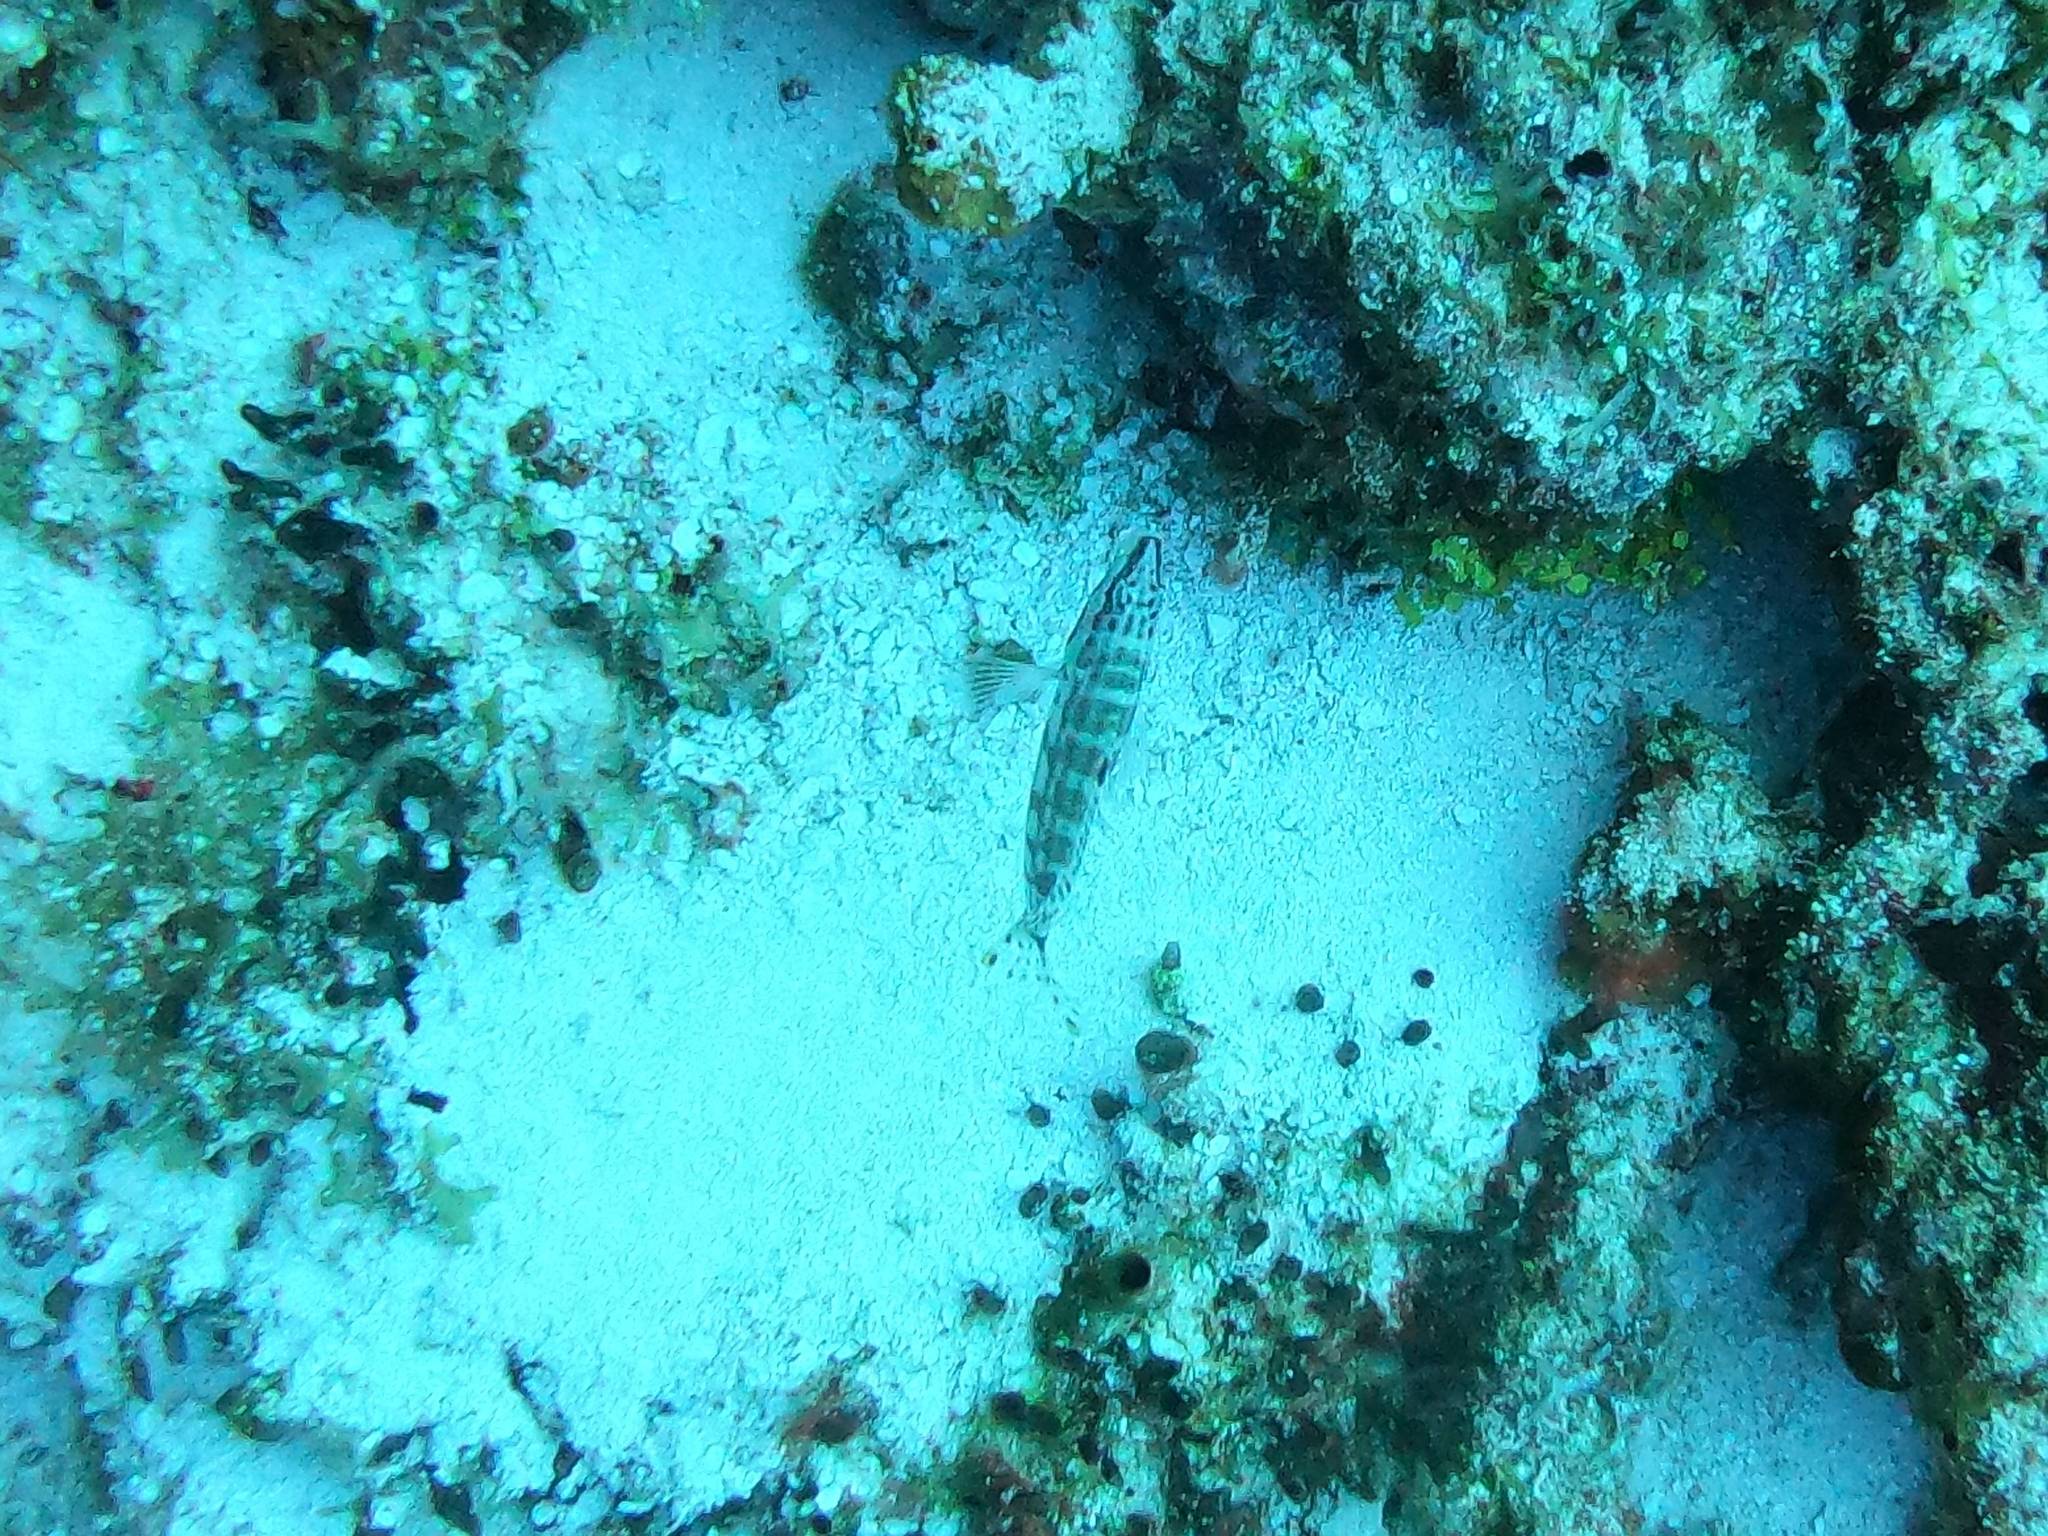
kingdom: Animalia
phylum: Chordata
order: Perciformes
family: Serranidae
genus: Serranus
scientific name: Serranus tigrinus
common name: Harlequin bass
